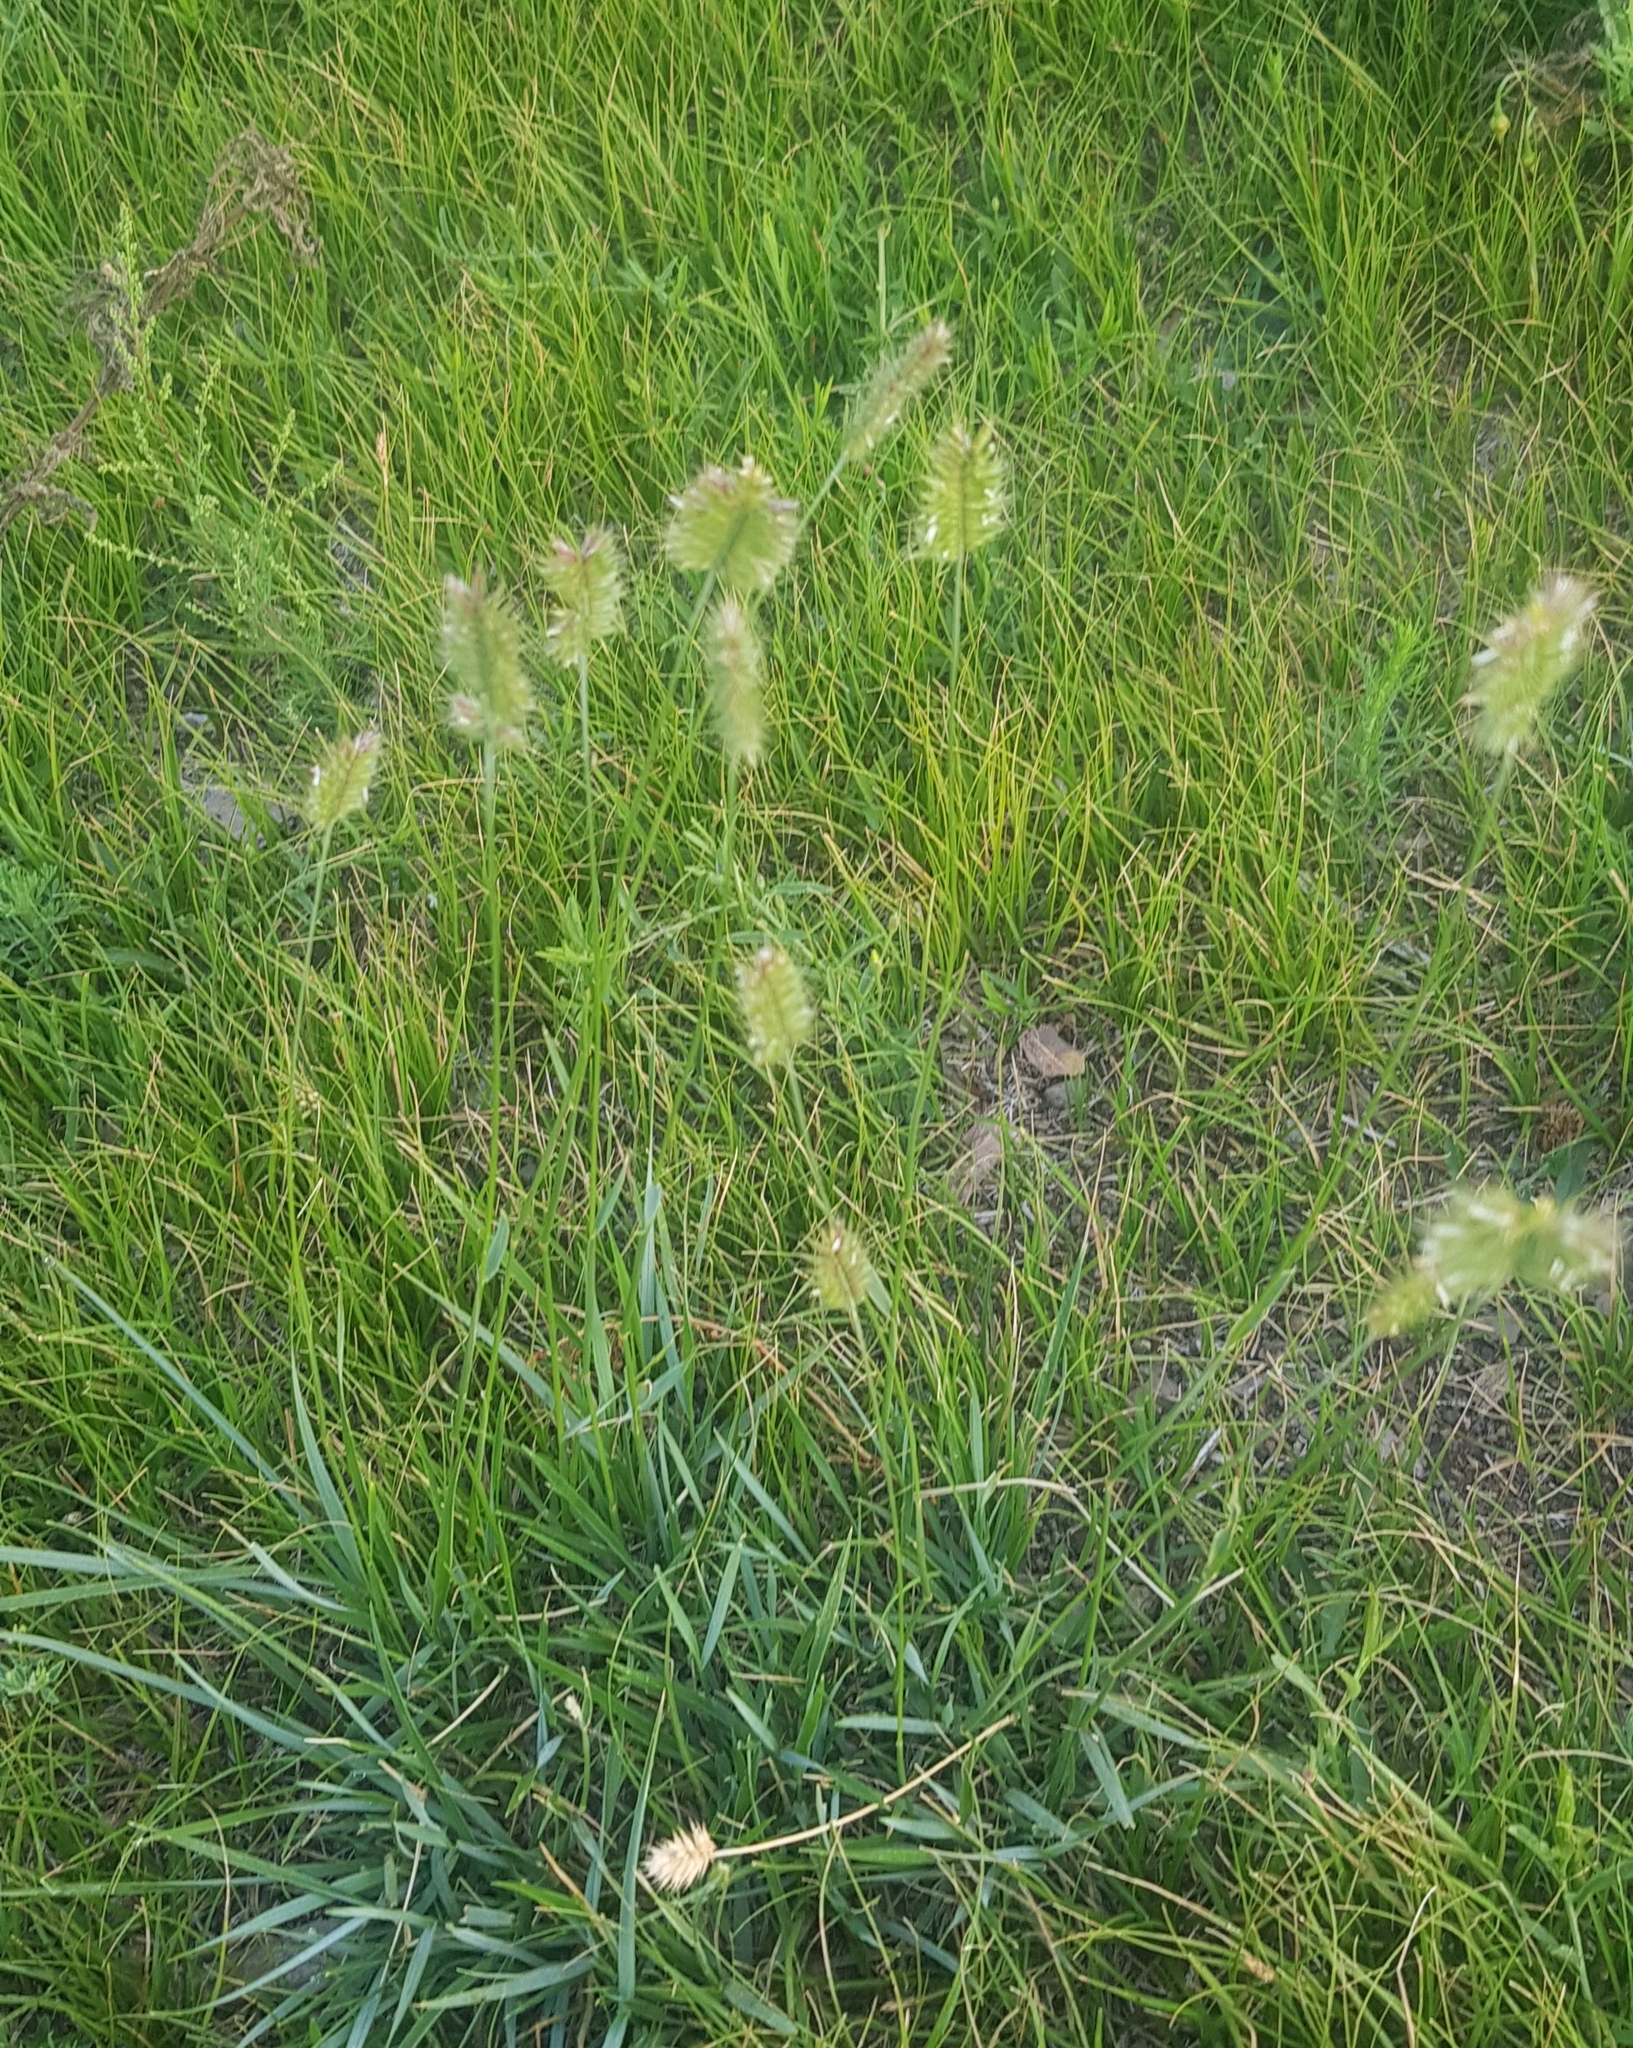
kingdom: Plantae
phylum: Tracheophyta
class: Liliopsida
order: Poales
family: Poaceae
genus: Agropyron
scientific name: Agropyron cristatum
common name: Crested wheatgrass
